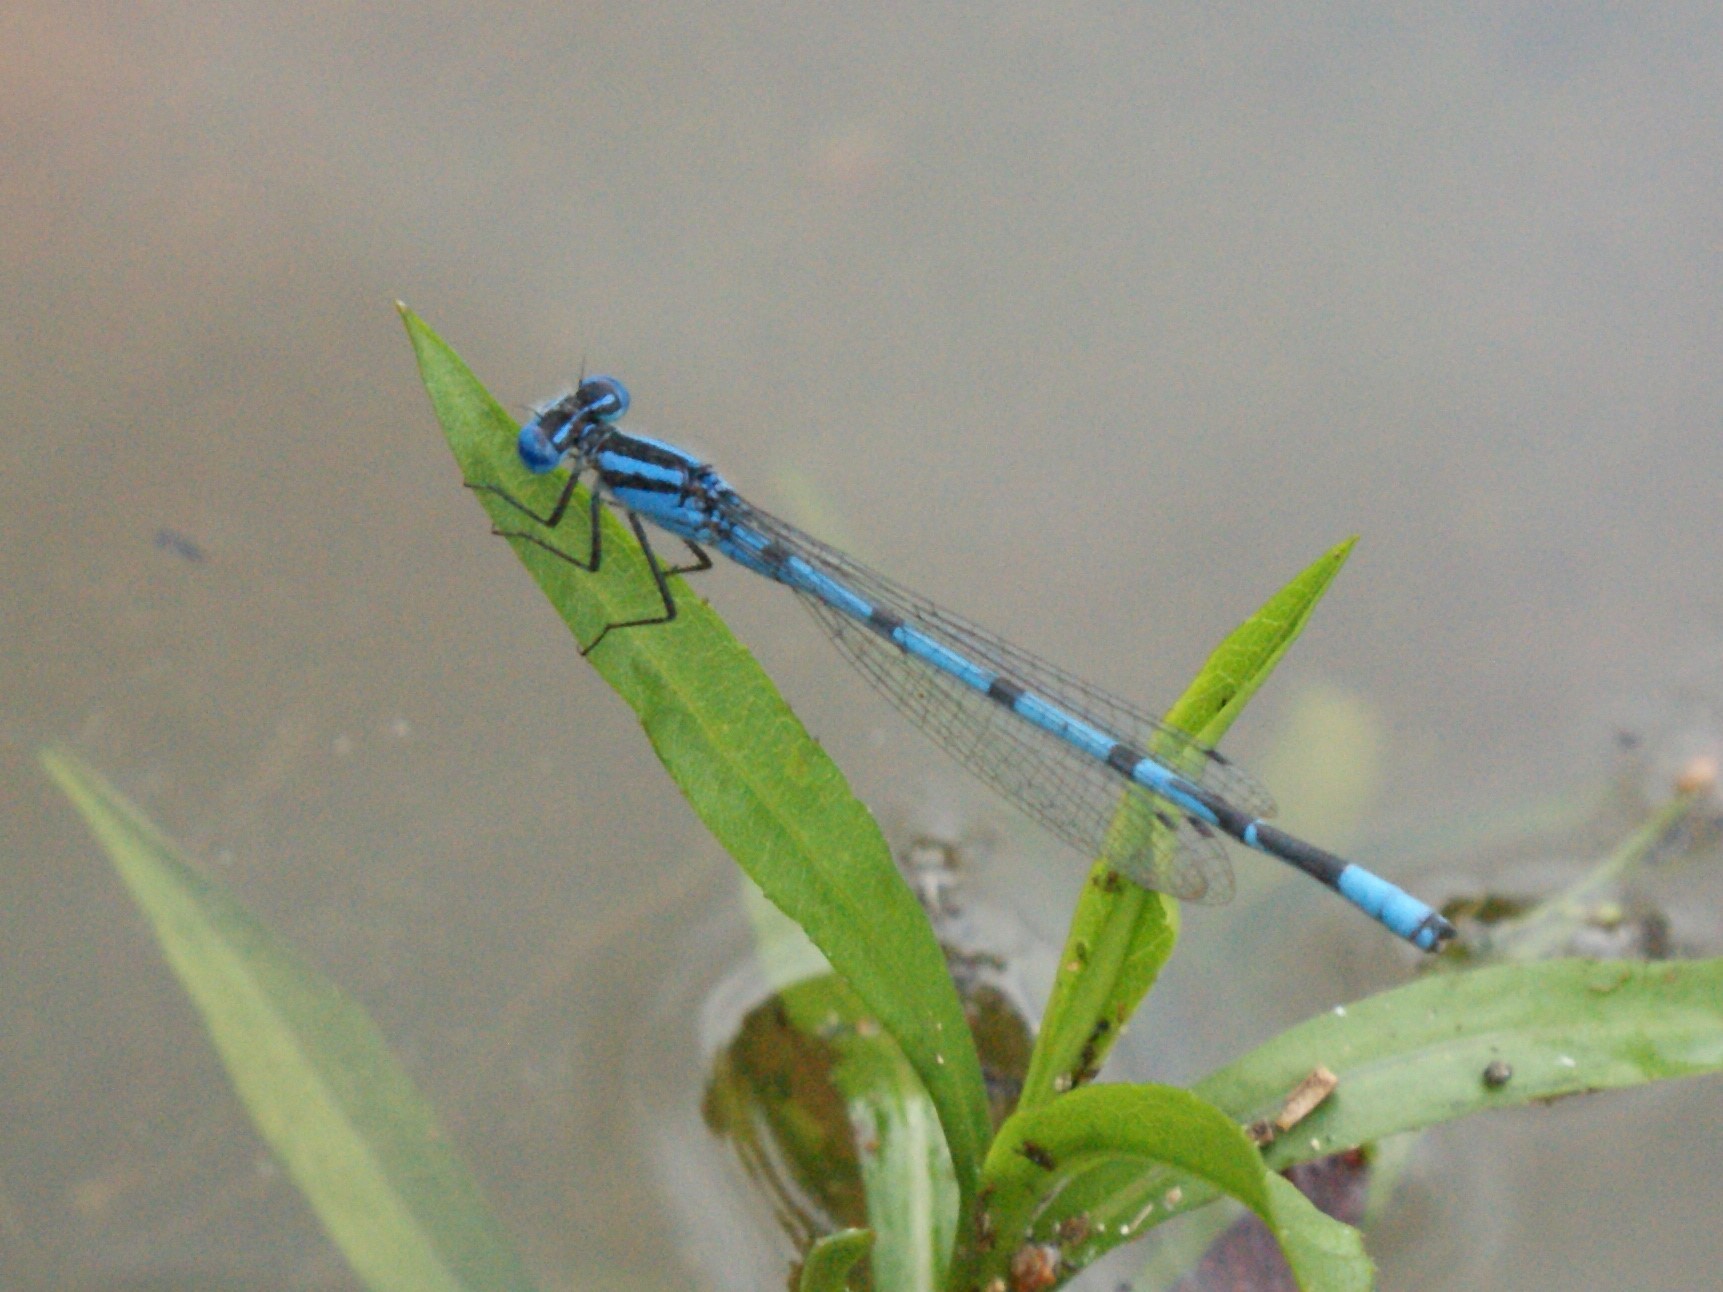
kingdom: Animalia
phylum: Arthropoda
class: Insecta
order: Odonata
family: Coenagrionidae
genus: Enallagma
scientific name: Enallagma doubledayi
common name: Atlantic bluet
